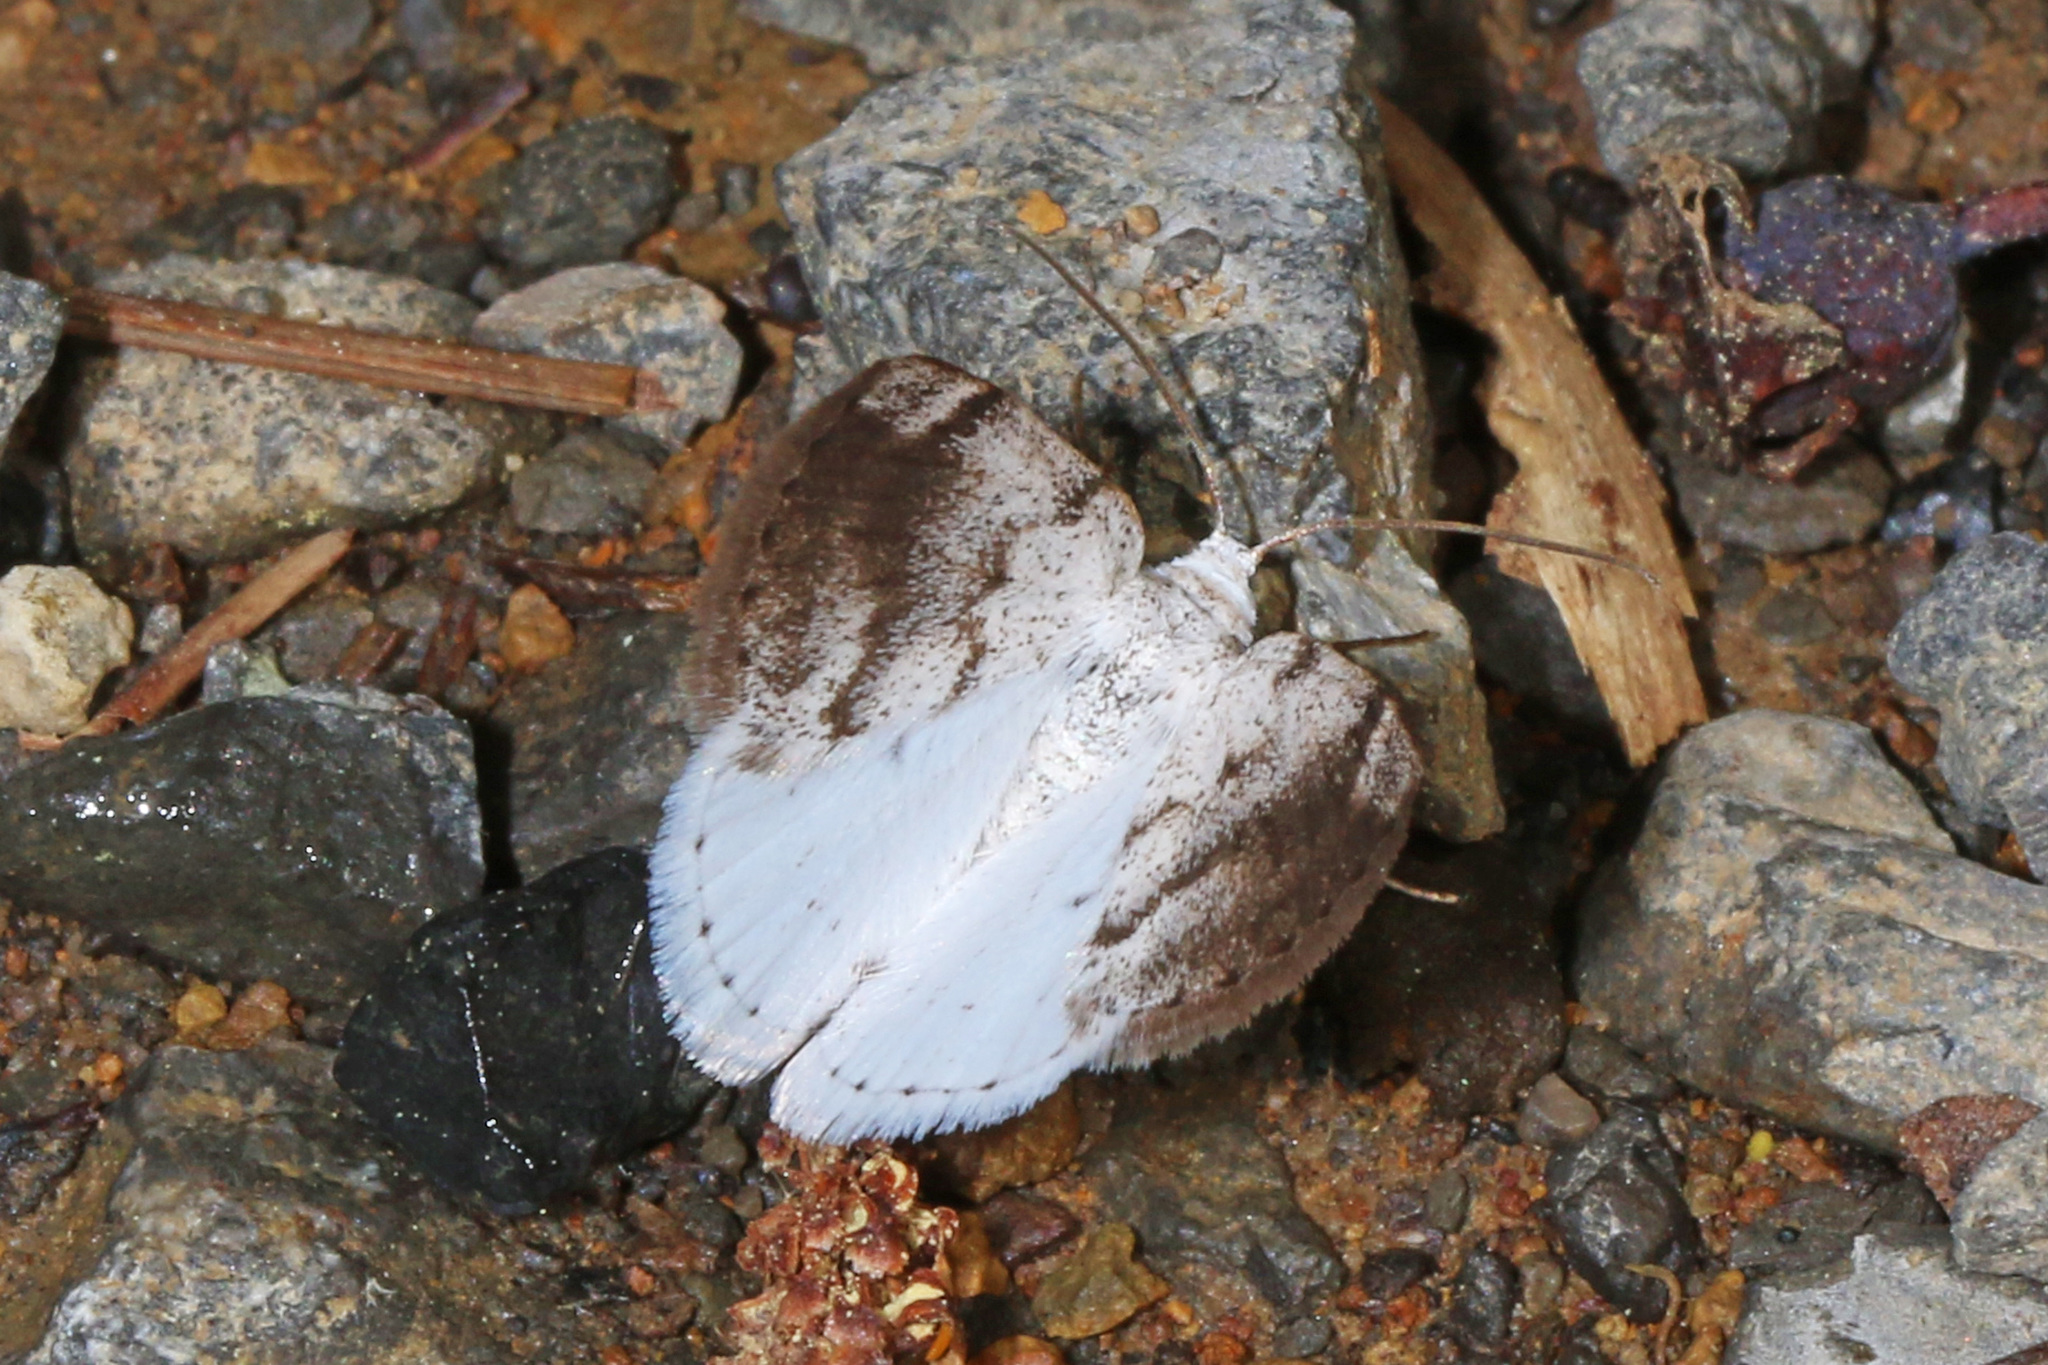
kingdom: Animalia
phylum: Arthropoda
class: Insecta
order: Lepidoptera
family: Geometridae
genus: Lomographa
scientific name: Lomographa semiclarata
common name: Bluish spring moth
